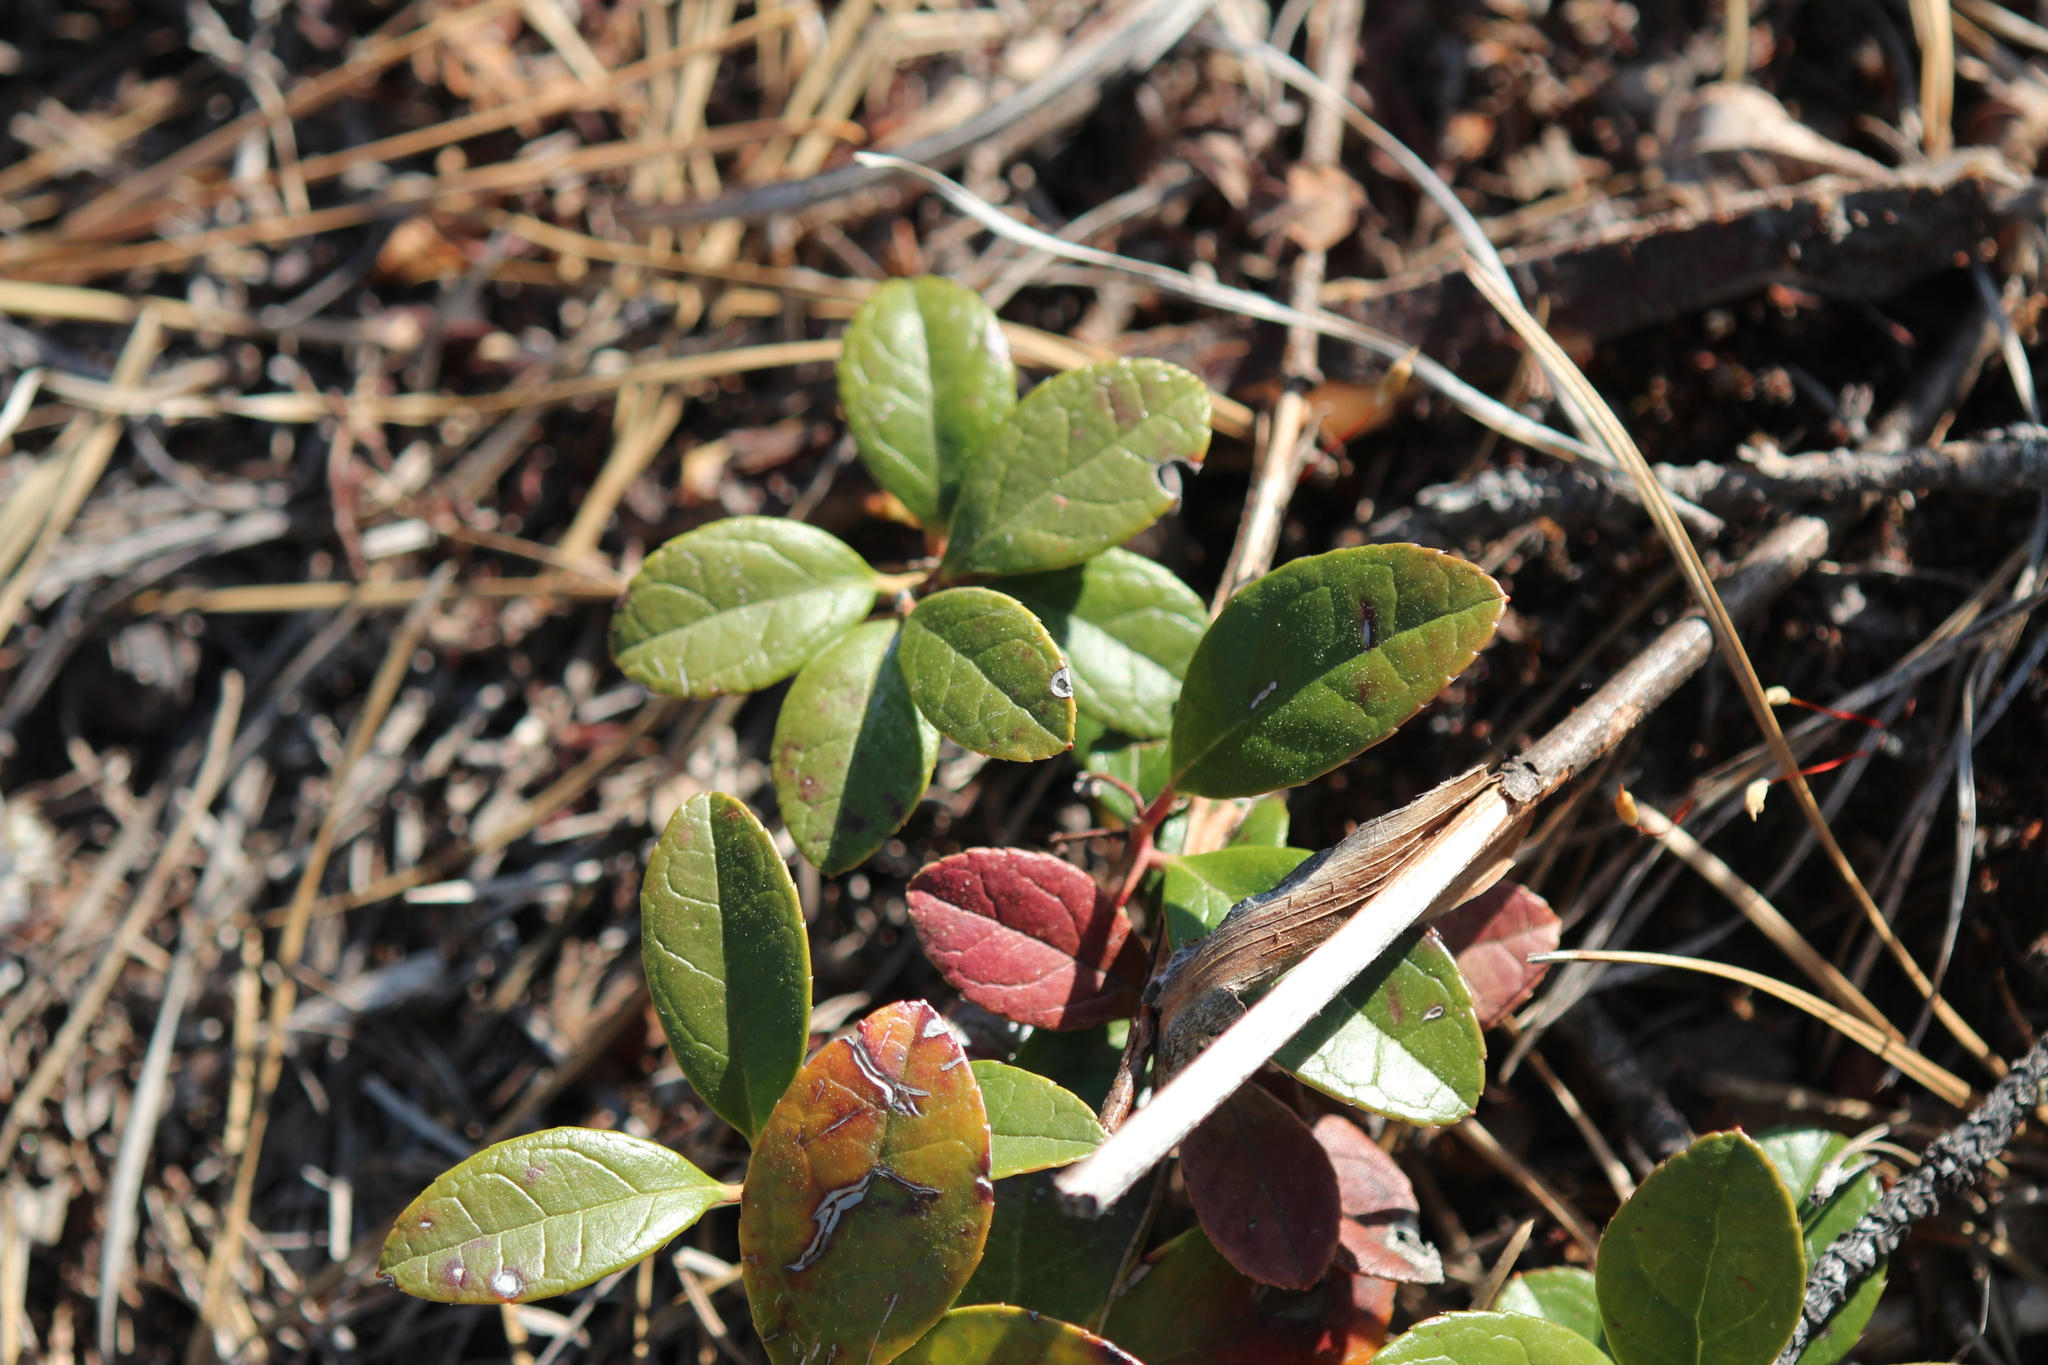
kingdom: Plantae
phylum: Tracheophyta
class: Magnoliopsida
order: Ericales
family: Ericaceae
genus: Gaultheria
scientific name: Gaultheria procumbens
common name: Checkerberry
